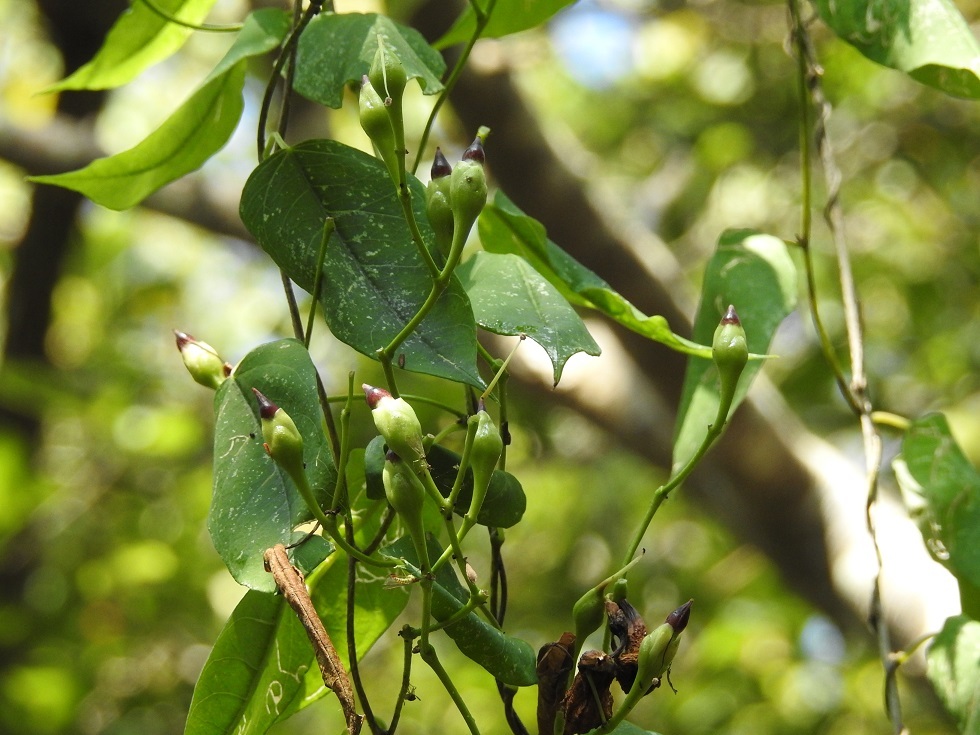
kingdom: Plantae
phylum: Tracheophyta
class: Magnoliopsida
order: Solanales
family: Convolvulaceae
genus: Ipomoea
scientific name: Ipomoea pedicellaris
